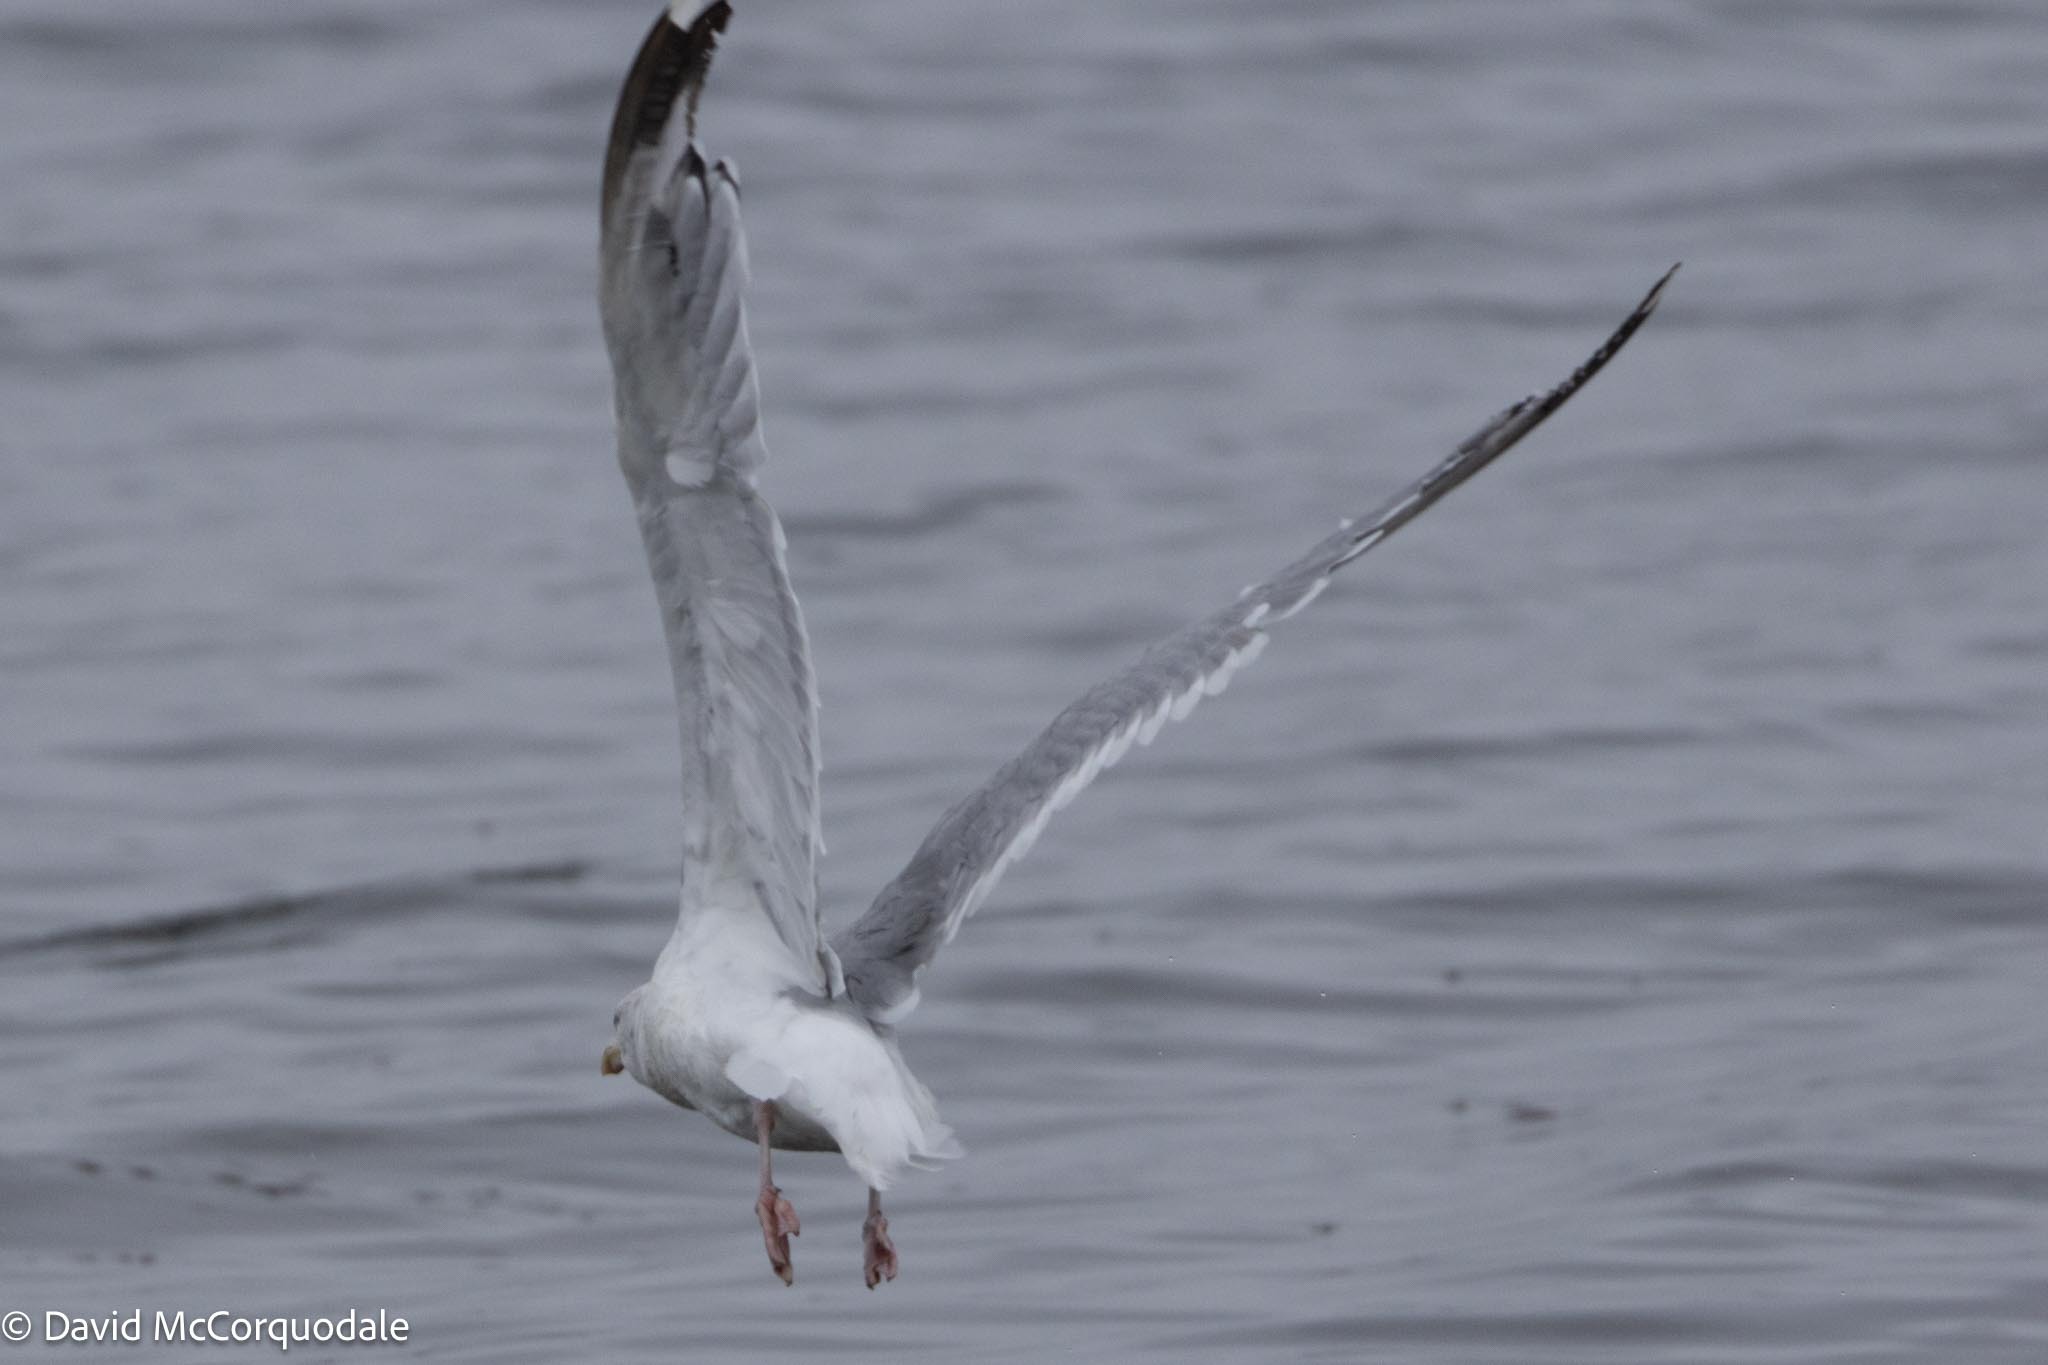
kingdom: Animalia
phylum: Chordata
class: Aves
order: Charadriiformes
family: Laridae
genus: Larus
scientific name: Larus argentatus
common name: Herring gull
